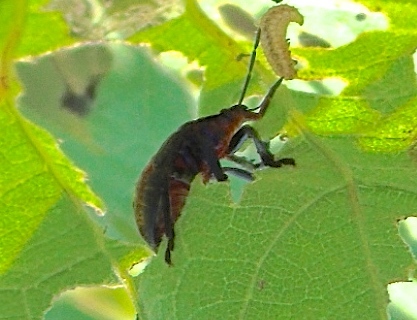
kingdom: Animalia
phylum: Arthropoda
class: Insecta
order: Hemiptera
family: Pentatomidae
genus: Pellaea
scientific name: Pellaea stictica
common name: Stink bug
